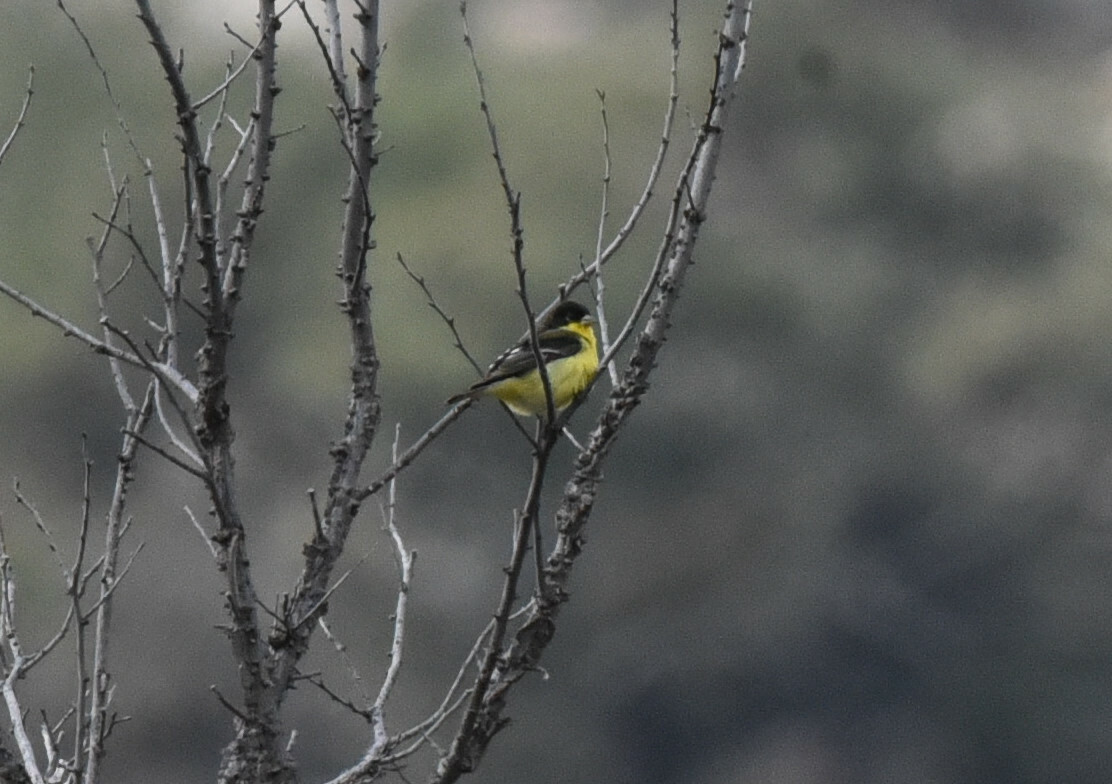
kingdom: Animalia
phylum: Chordata
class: Aves
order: Passeriformes
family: Fringillidae
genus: Spinus
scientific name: Spinus psaltria
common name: Lesser goldfinch
